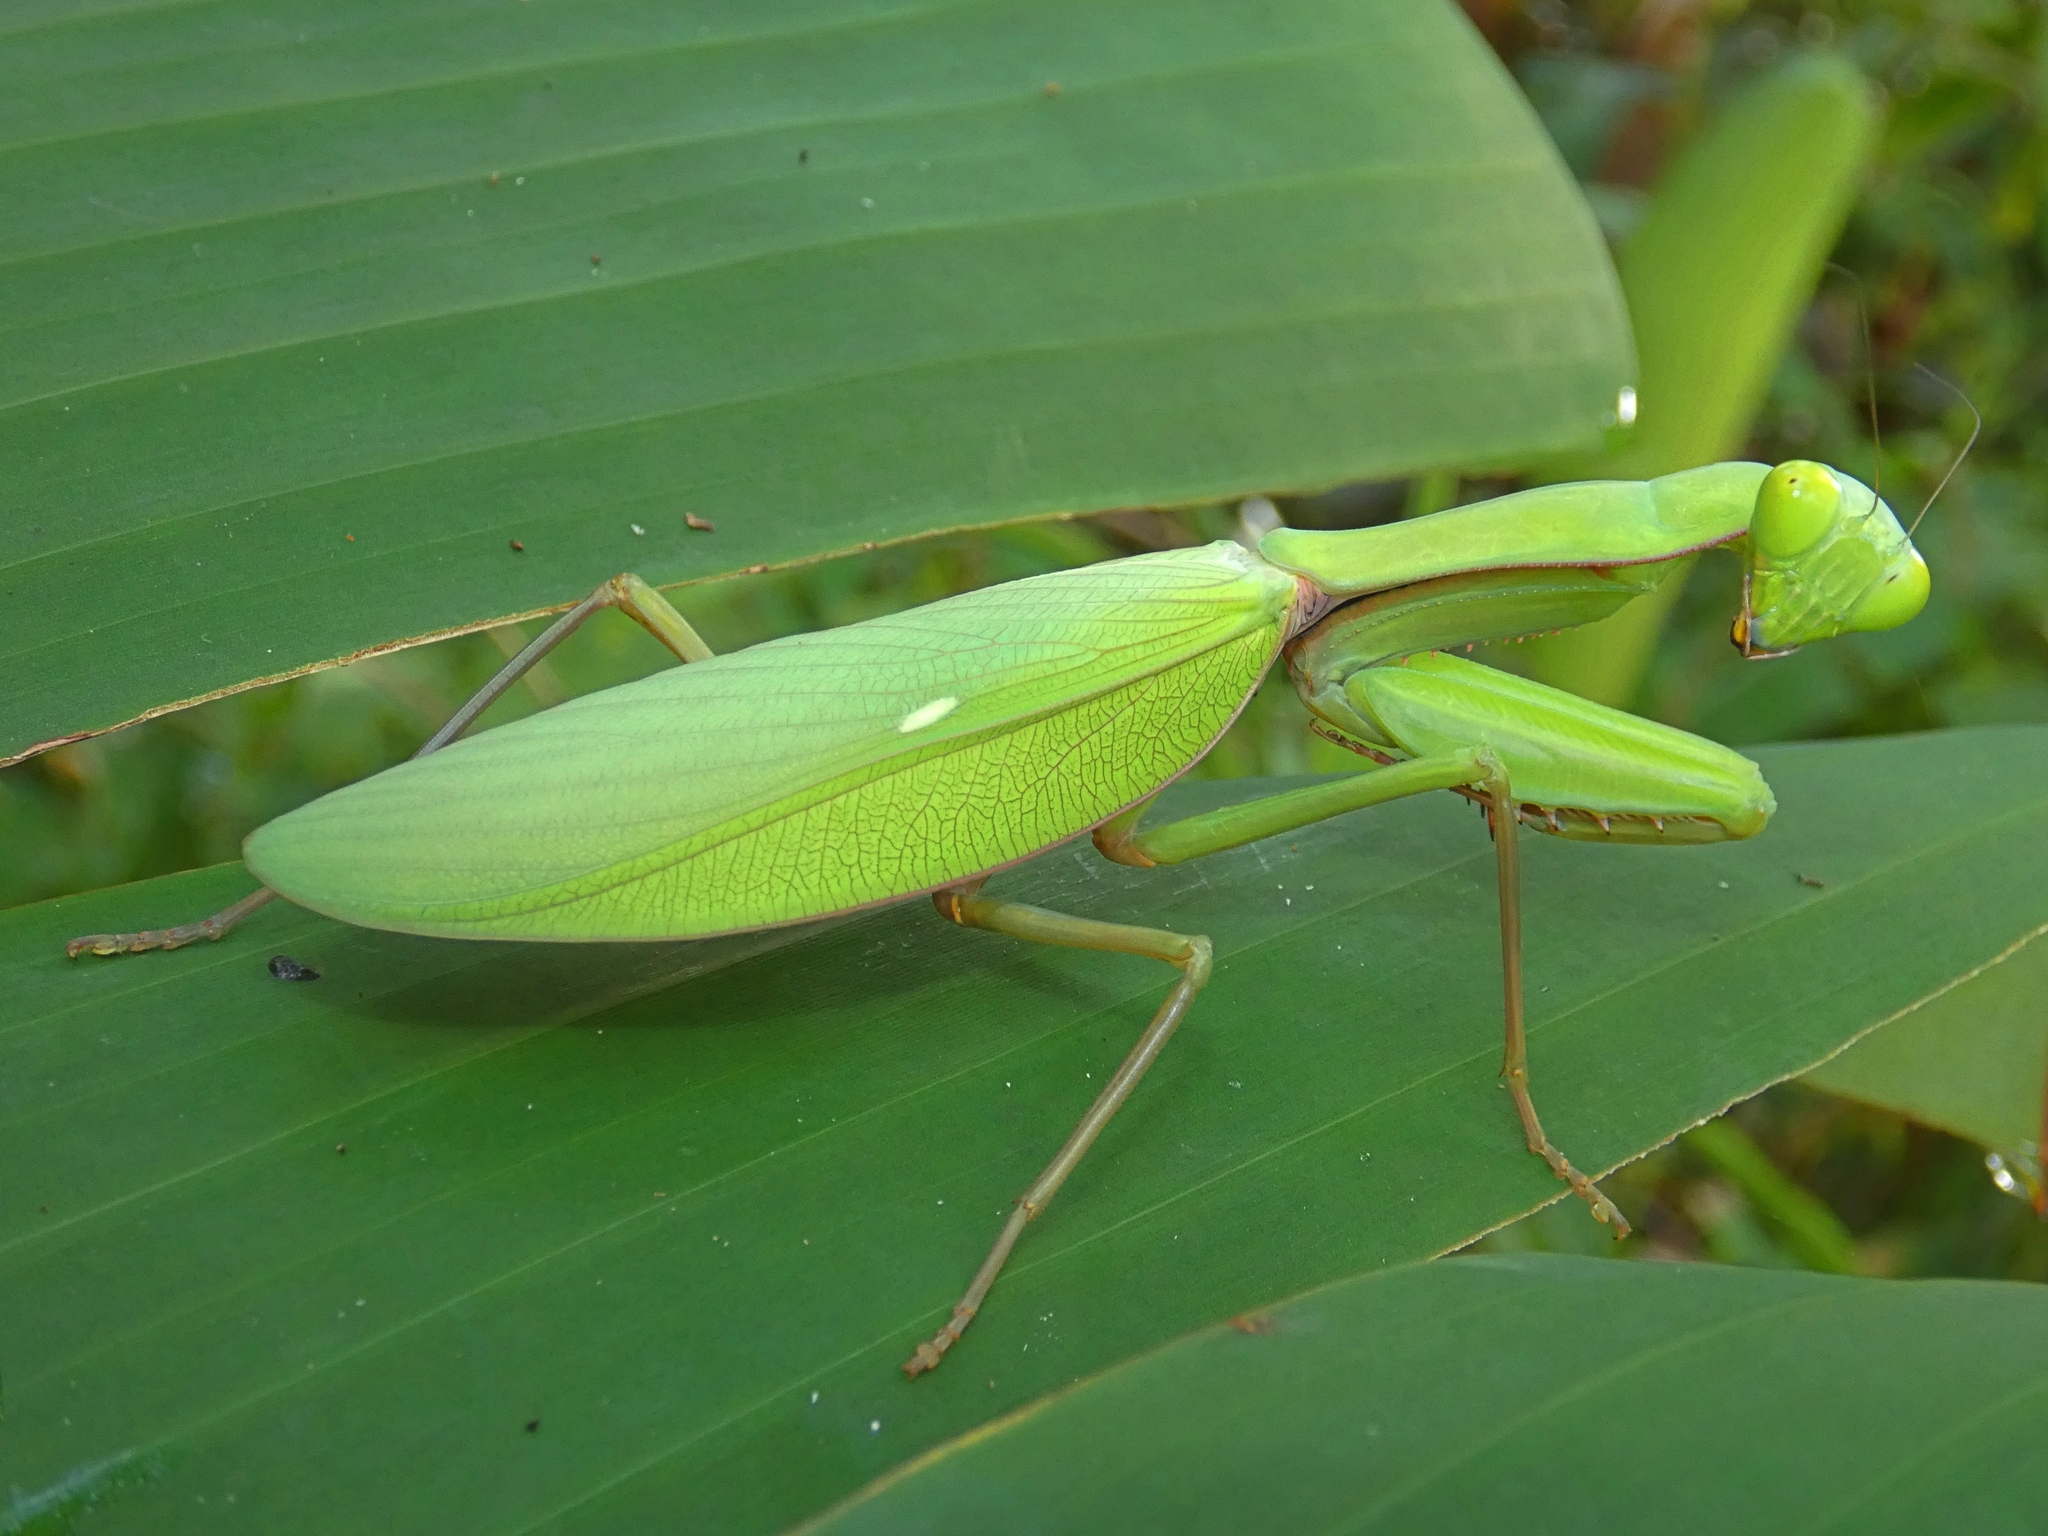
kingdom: Animalia
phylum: Arthropoda
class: Insecta
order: Mantodea
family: Mantidae
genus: Hierodula
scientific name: Hierodula majuscula
